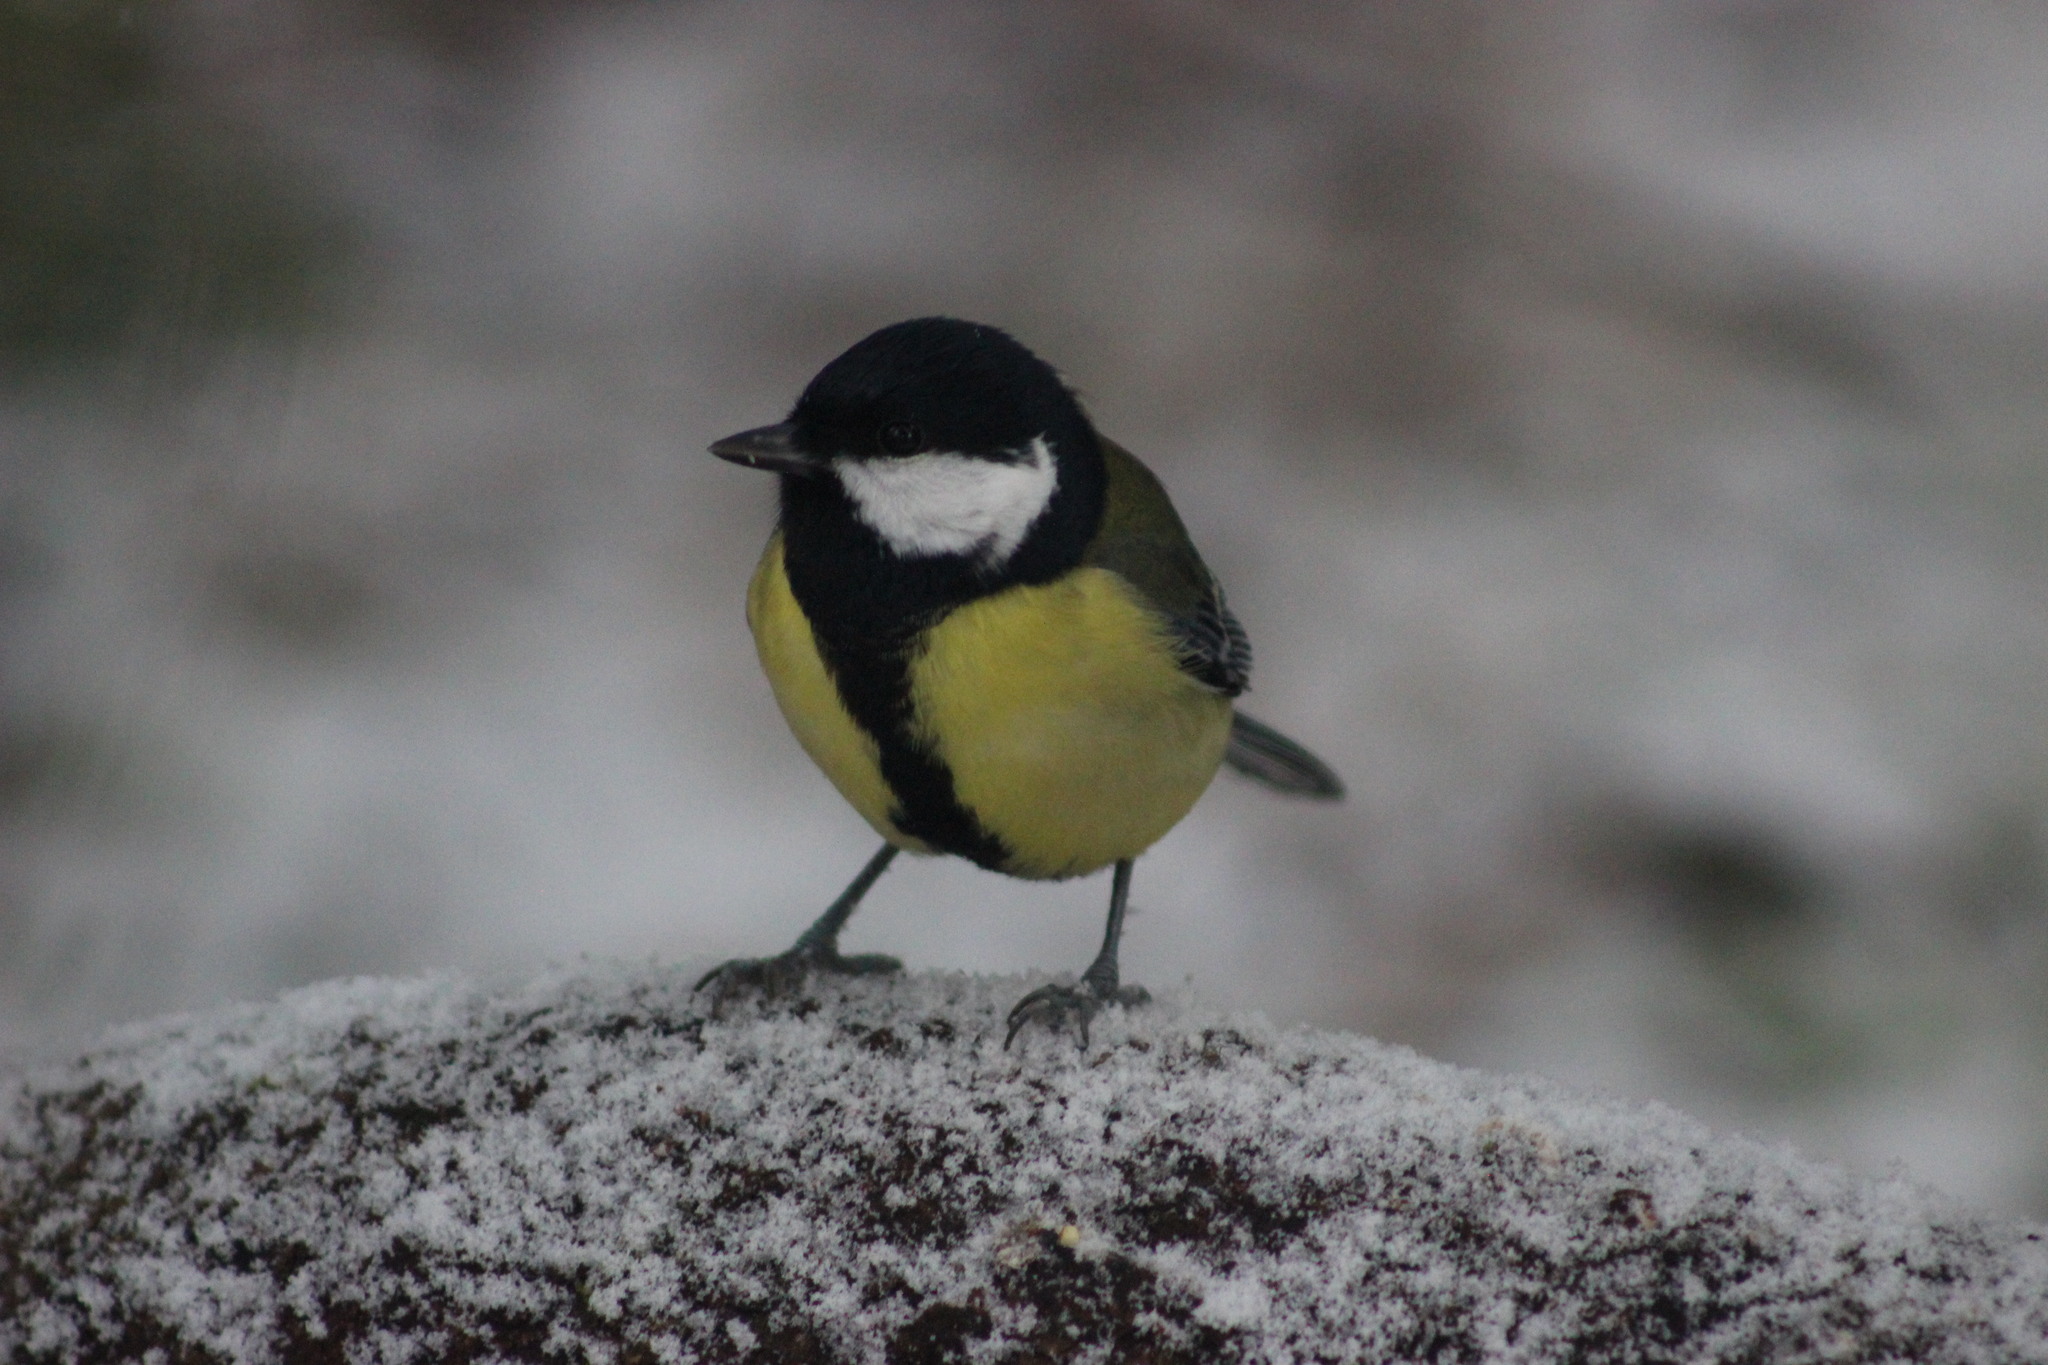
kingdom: Animalia
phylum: Chordata
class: Aves
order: Passeriformes
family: Paridae
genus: Parus
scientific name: Parus major
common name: Great tit
